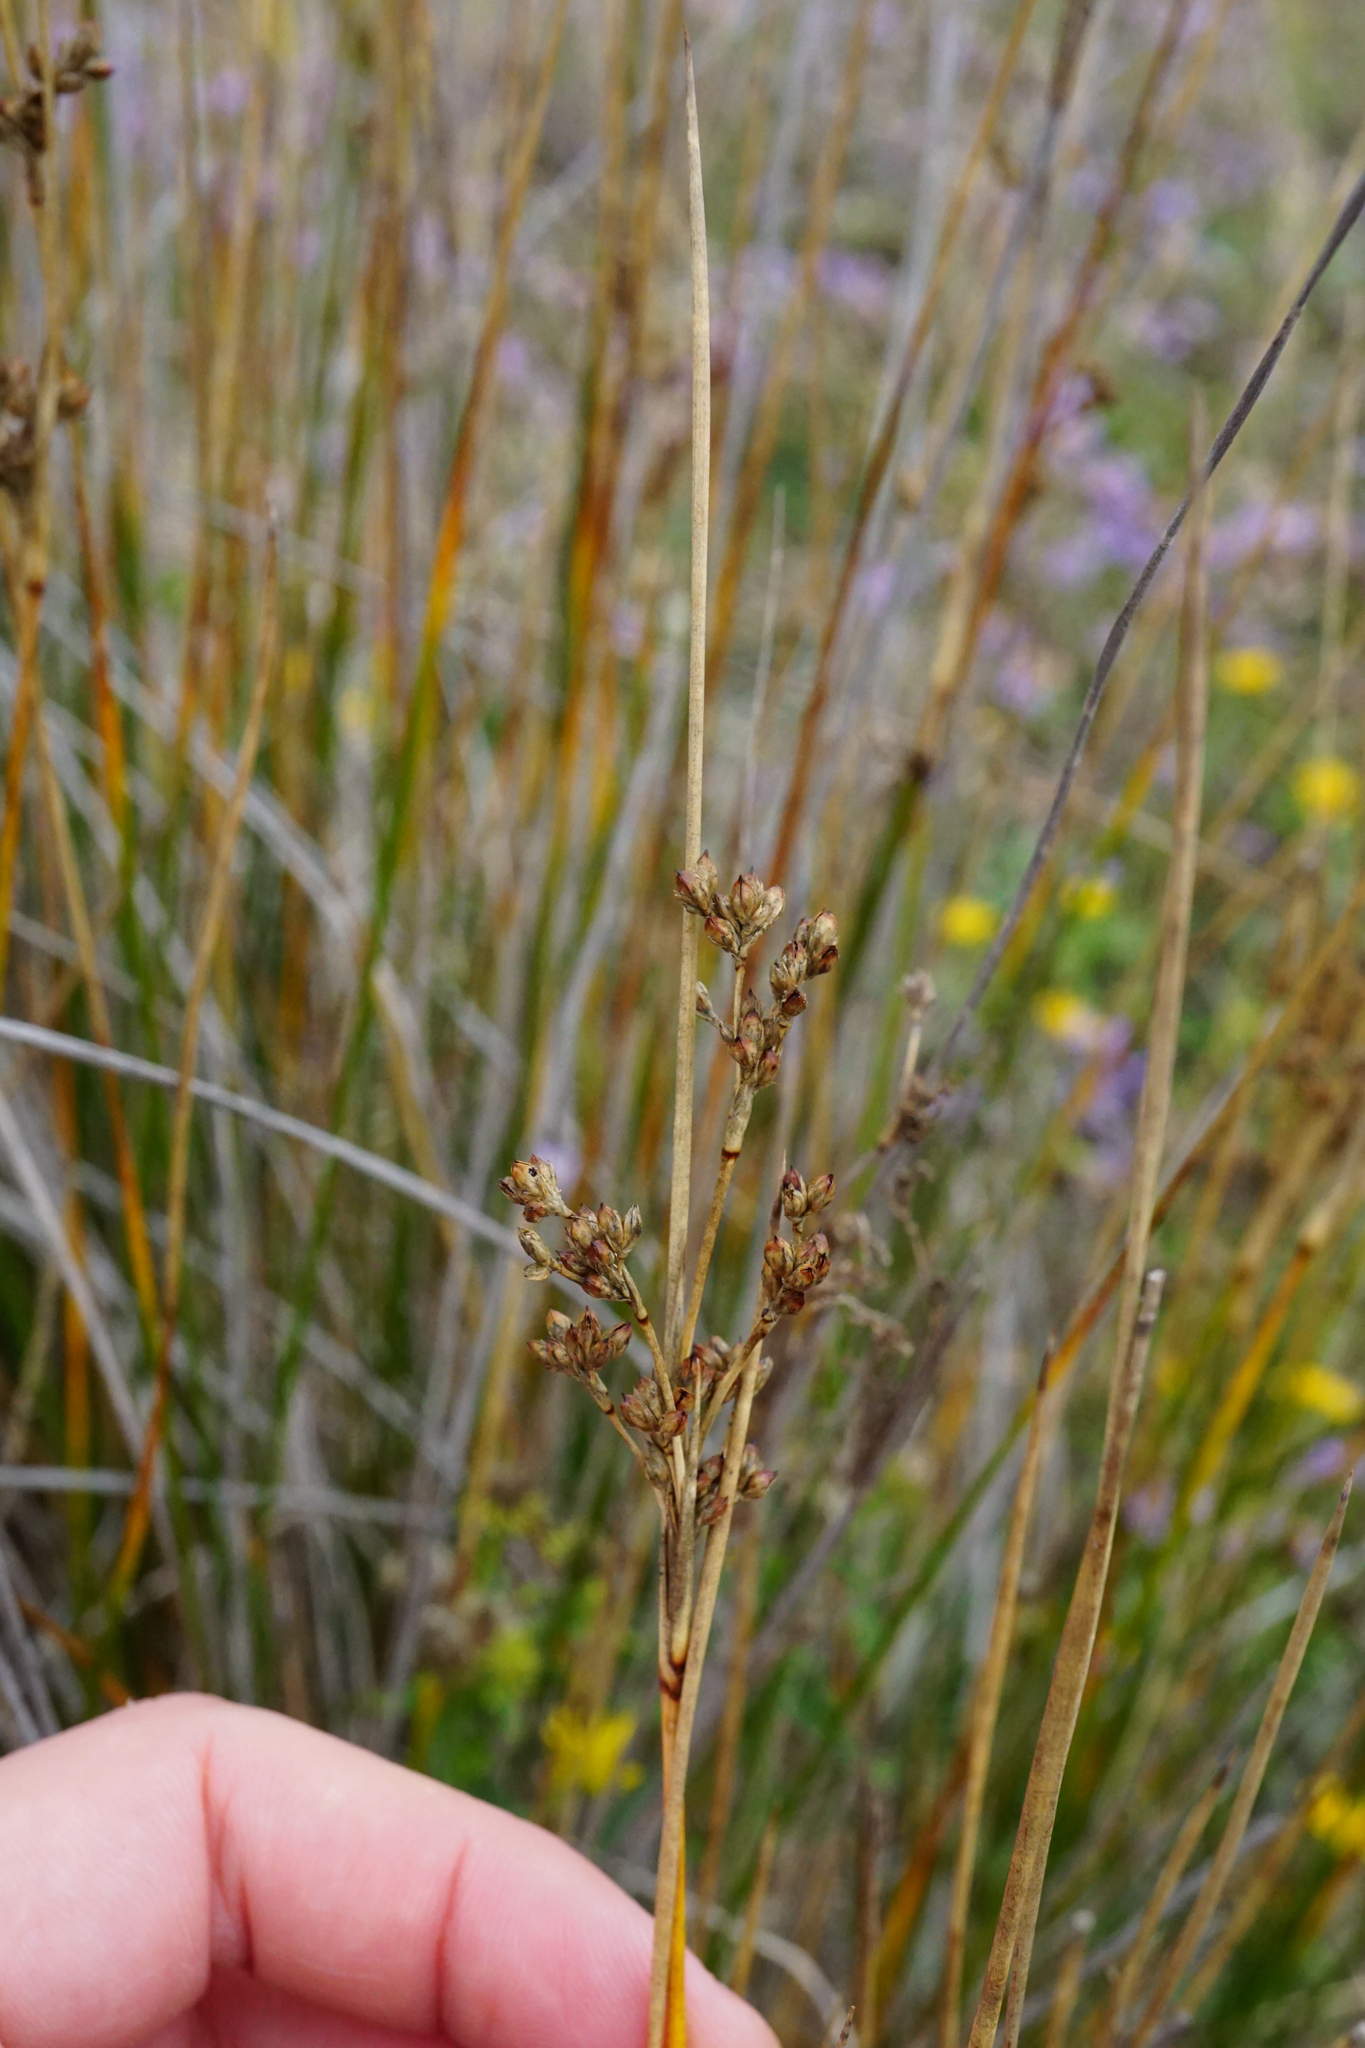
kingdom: Plantae
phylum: Tracheophyta
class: Liliopsida
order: Poales
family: Juncaceae
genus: Juncus
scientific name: Juncus maritimus
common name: Sea rush
